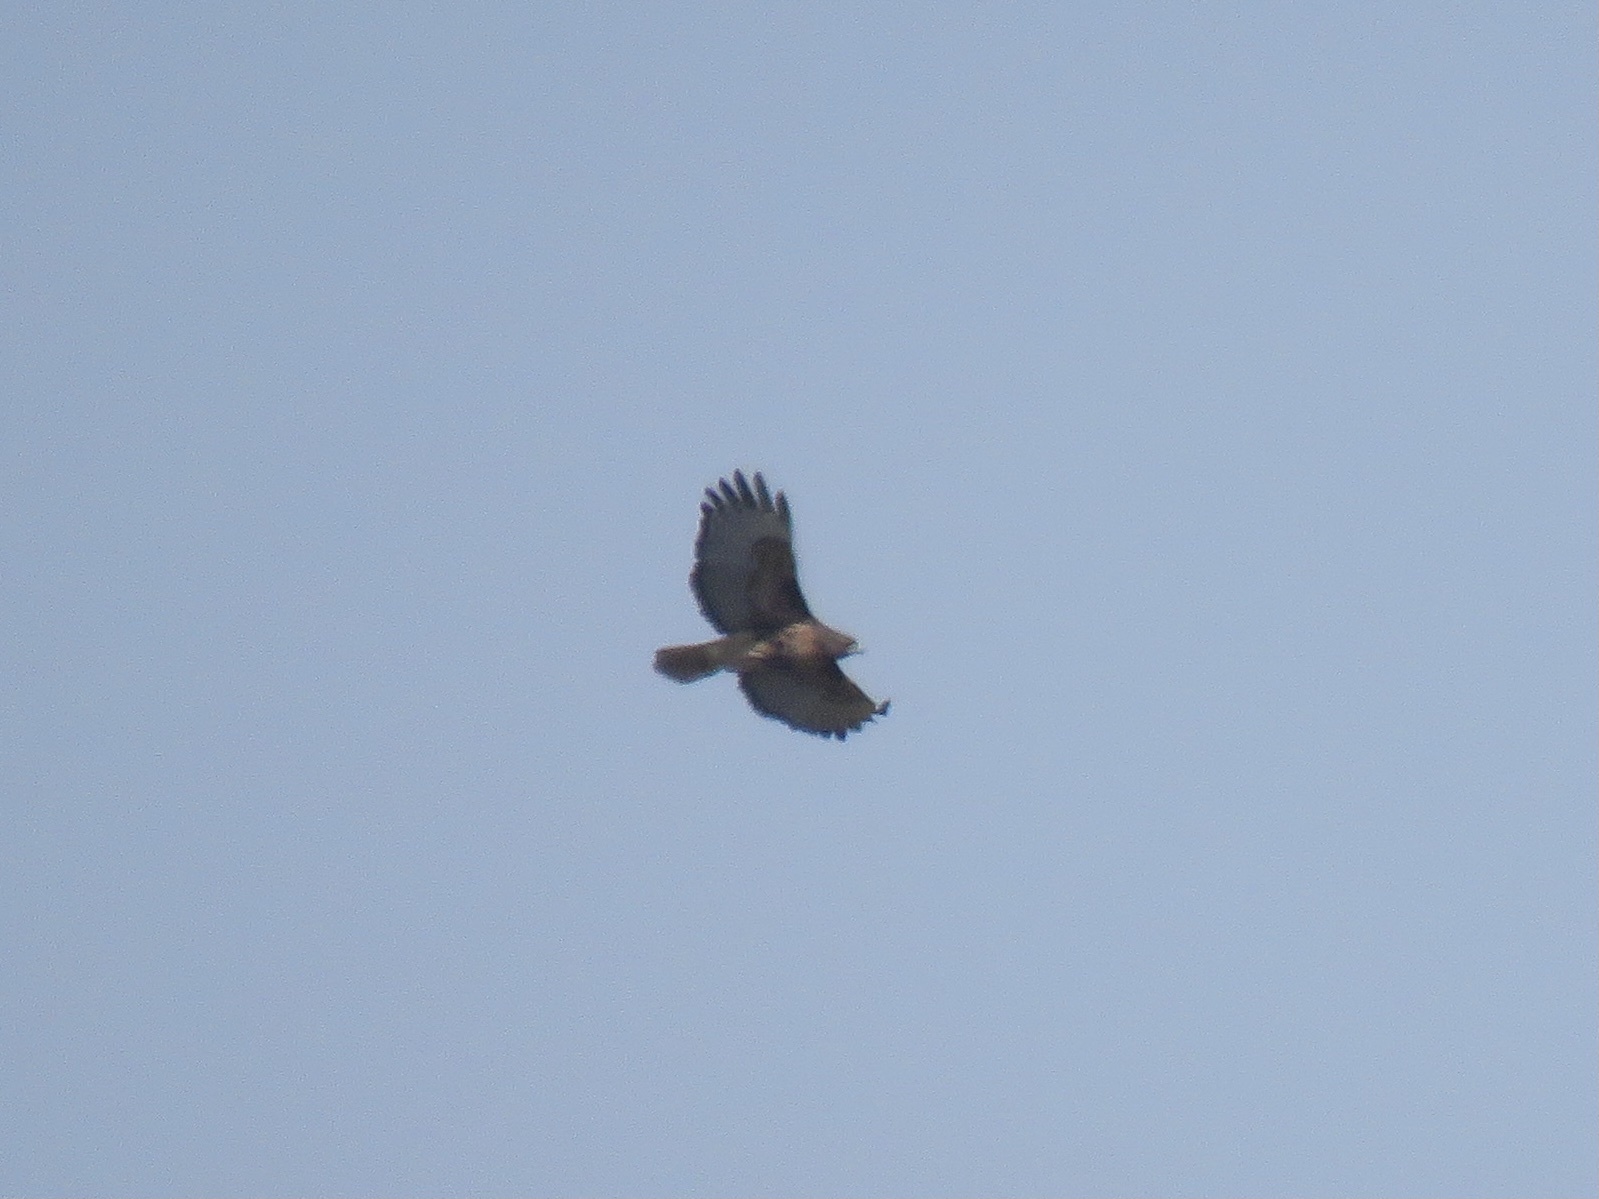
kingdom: Animalia
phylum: Chordata
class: Aves
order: Accipitriformes
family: Accipitridae
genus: Buteo
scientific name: Buteo jamaicensis
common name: Red-tailed hawk
